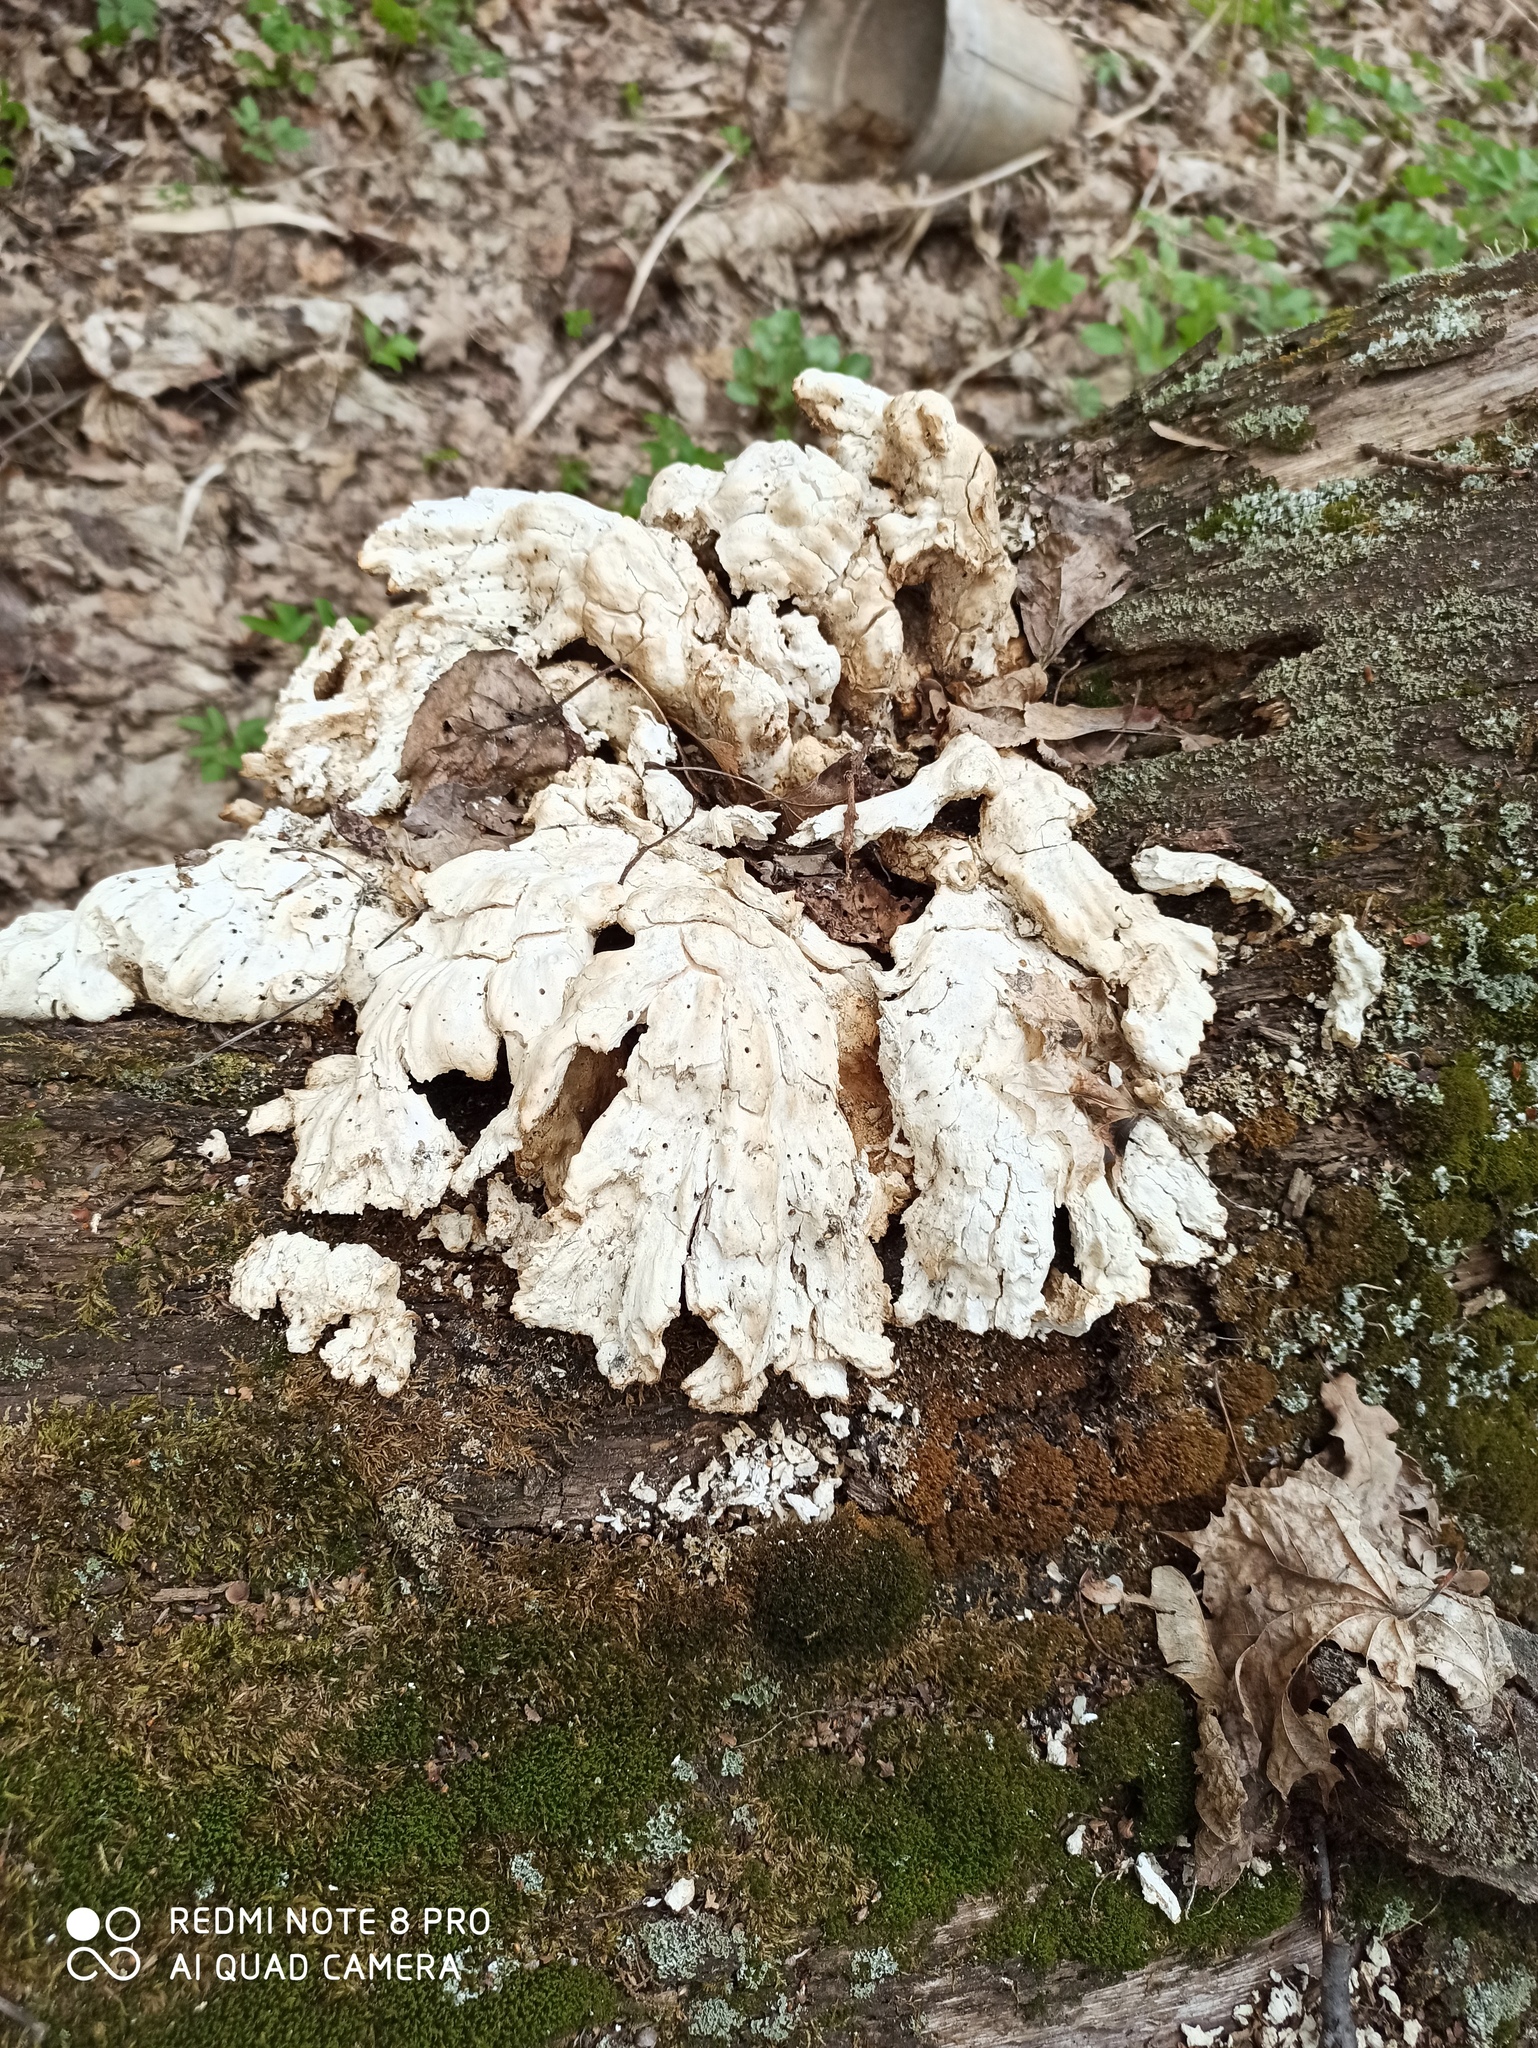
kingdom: Fungi
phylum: Basidiomycota
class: Agaricomycetes
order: Polyporales
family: Laetiporaceae
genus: Laetiporus
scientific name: Laetiporus sulphureus
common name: Chicken of the woods
